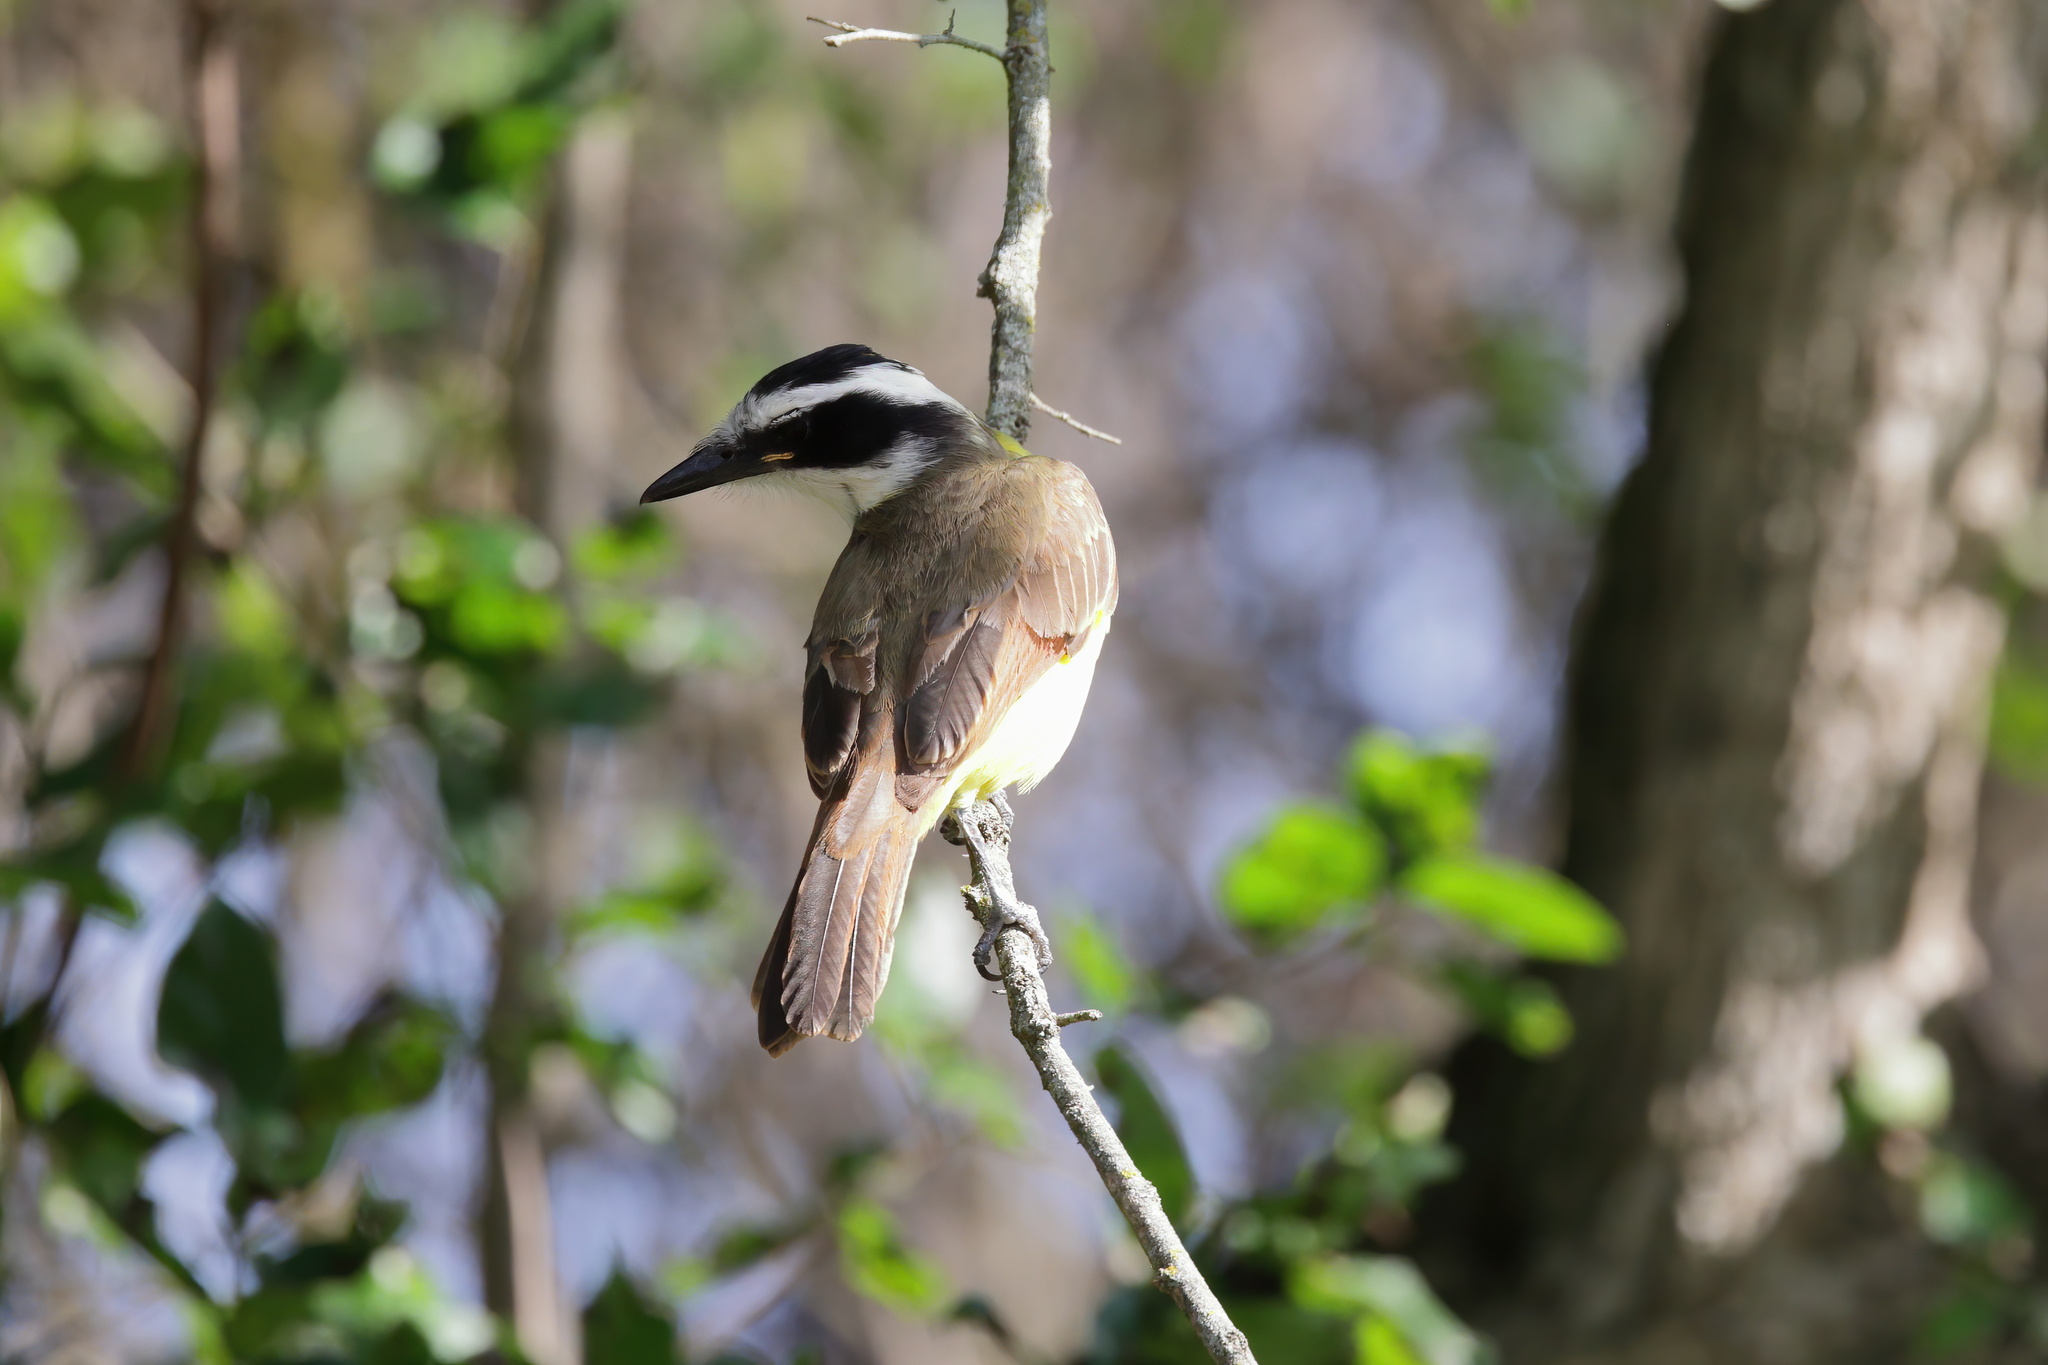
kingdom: Animalia
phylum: Chordata
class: Aves
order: Passeriformes
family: Tyrannidae
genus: Pitangus
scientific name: Pitangus sulphuratus
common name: Great kiskadee
